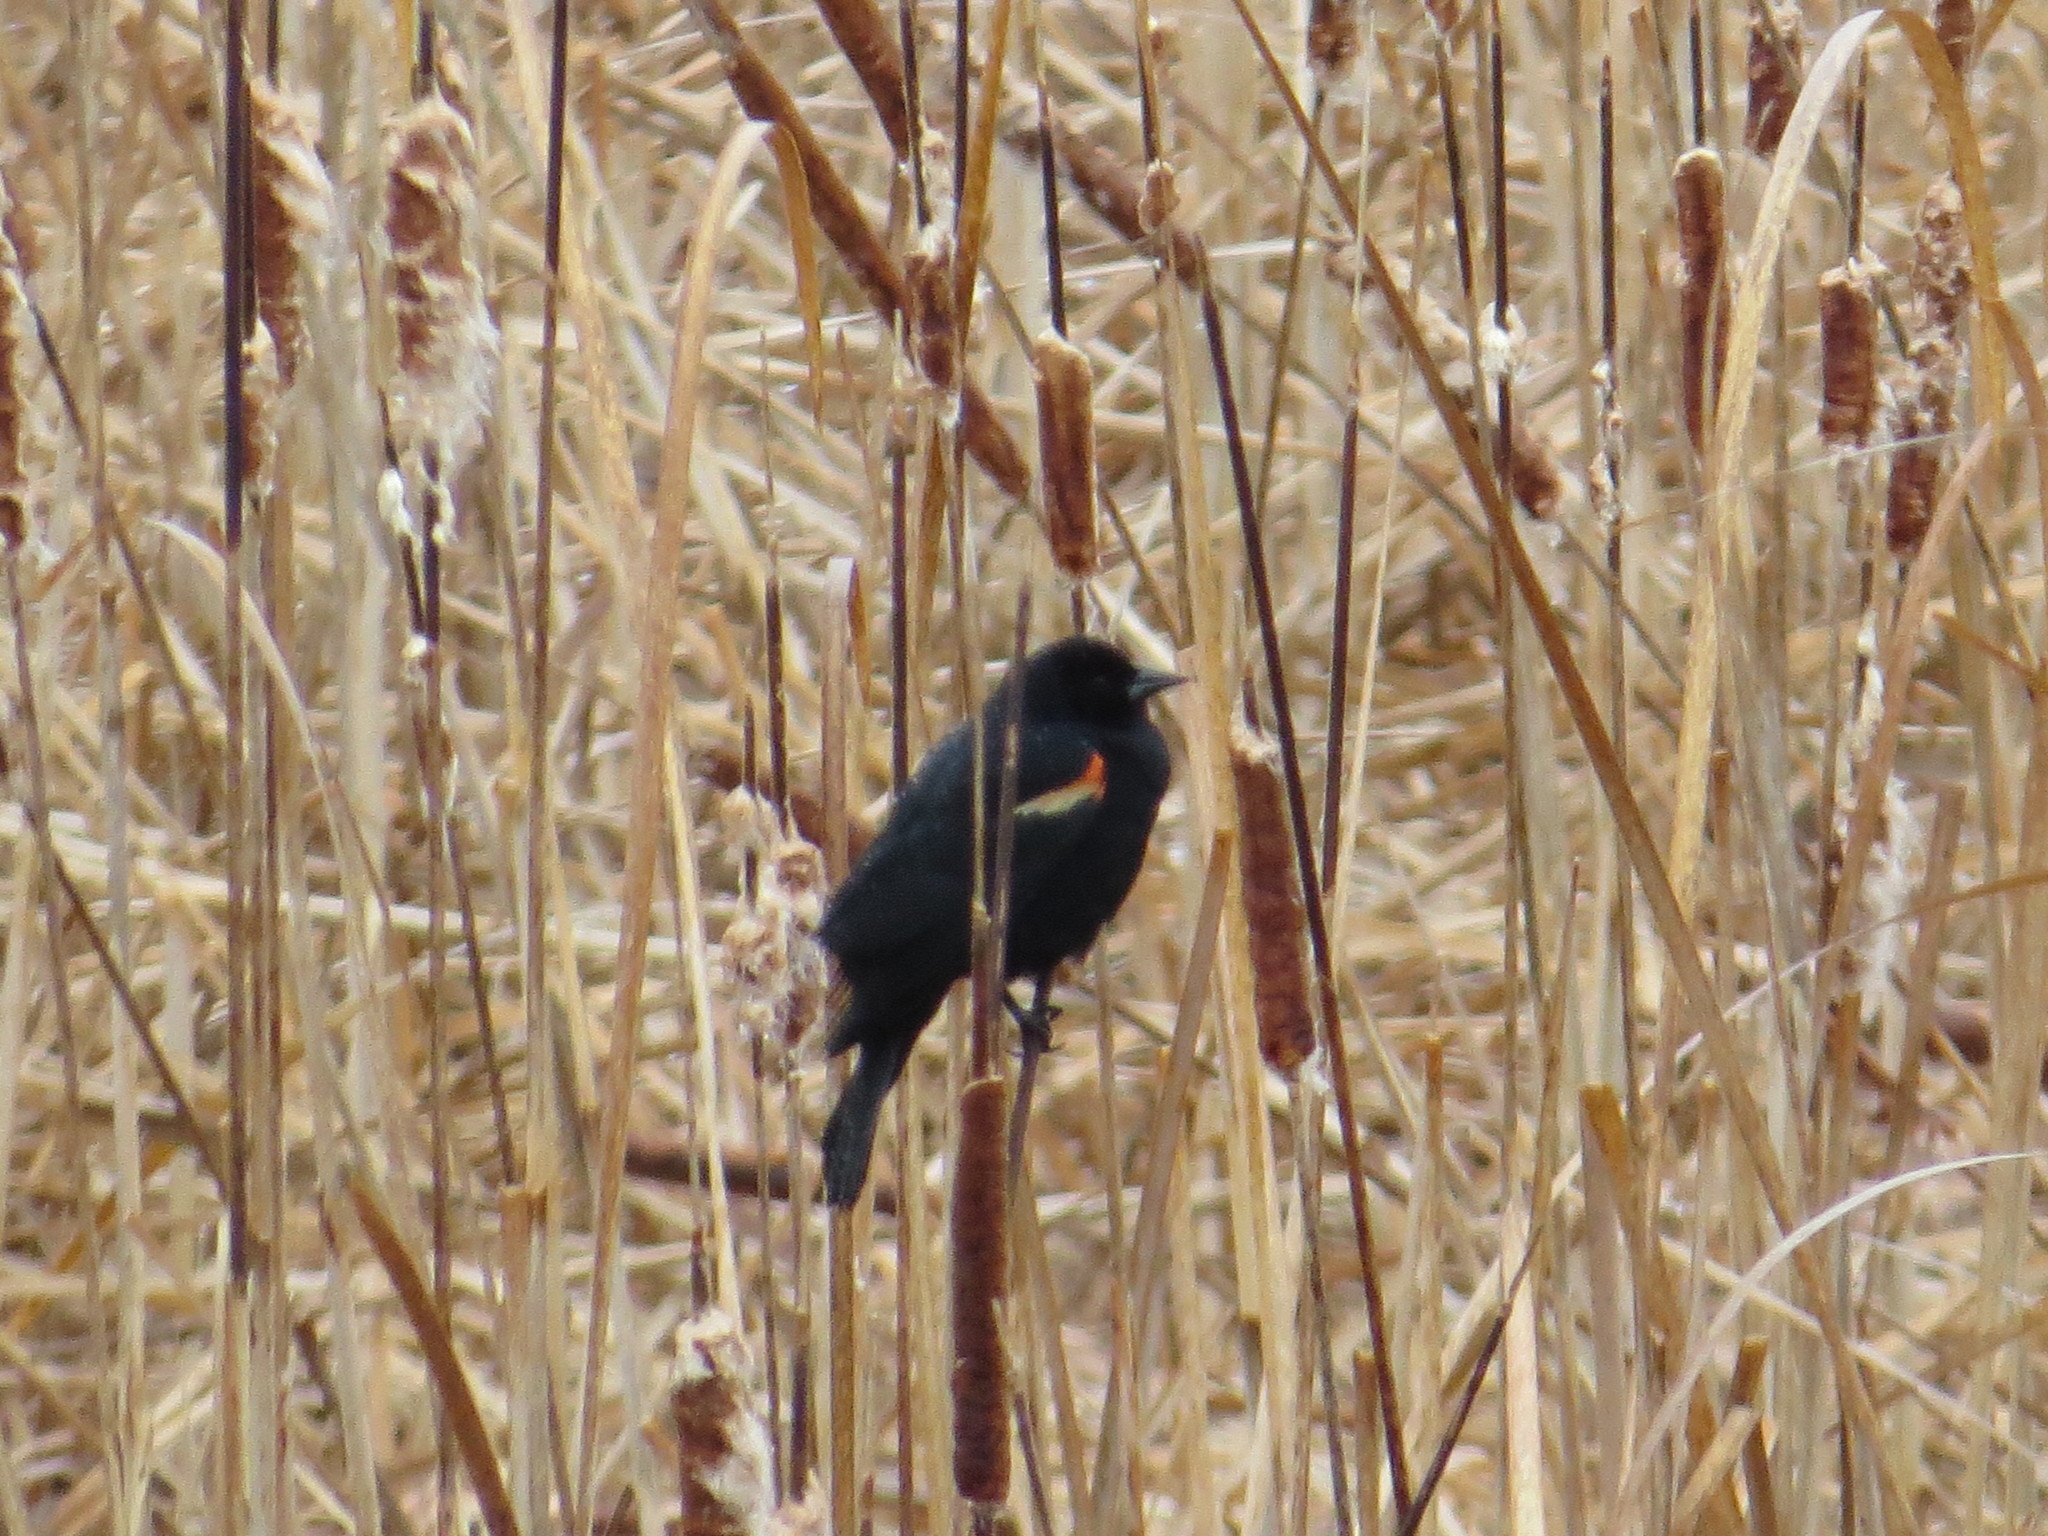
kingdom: Animalia
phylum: Chordata
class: Aves
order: Passeriformes
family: Icteridae
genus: Agelaius
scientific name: Agelaius phoeniceus
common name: Red-winged blackbird
